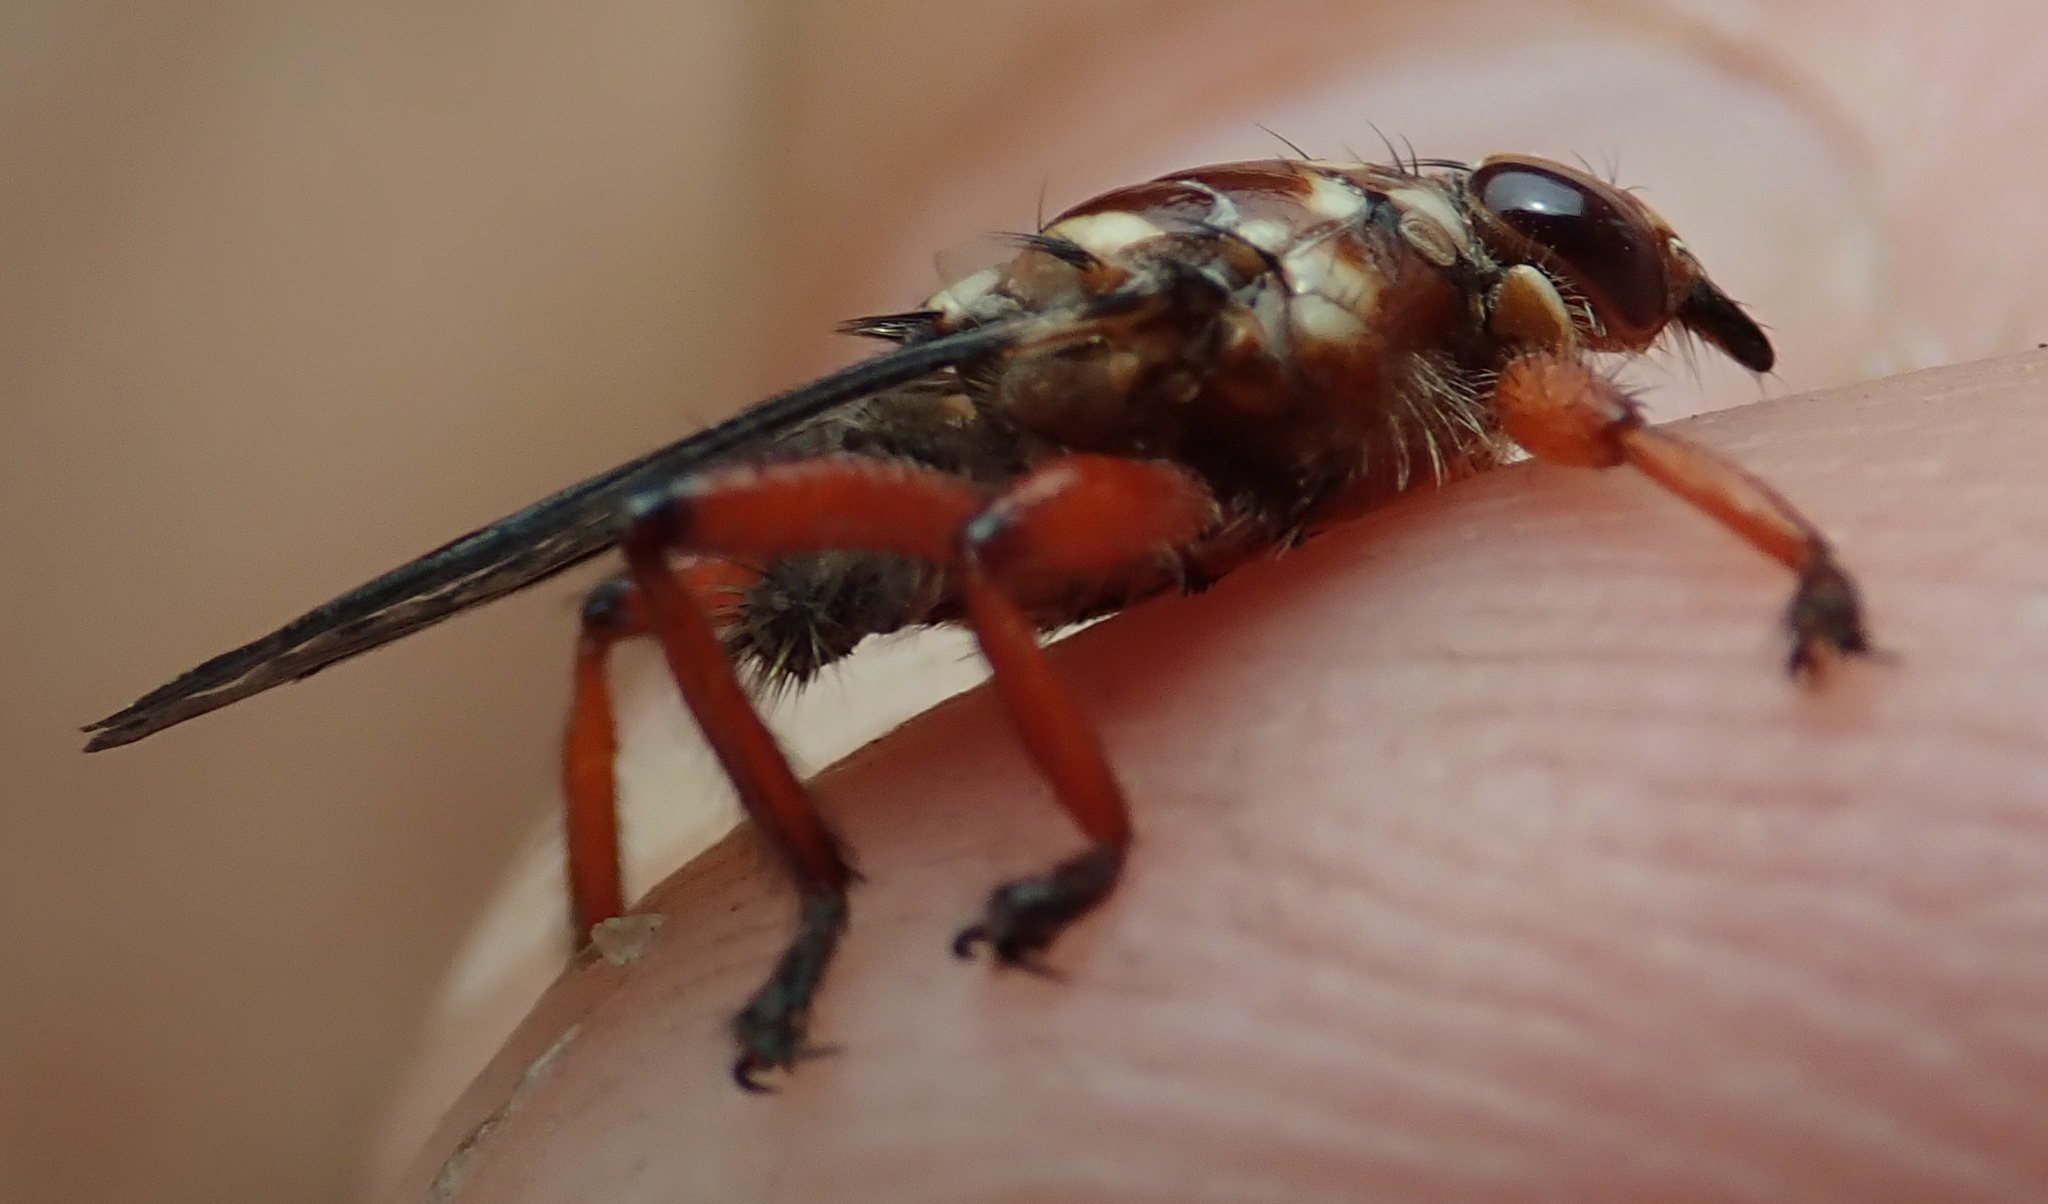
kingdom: Animalia
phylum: Arthropoda
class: Insecta
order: Diptera
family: Hippoboscidae
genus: Hippobosca
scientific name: Hippobosca rufipes
